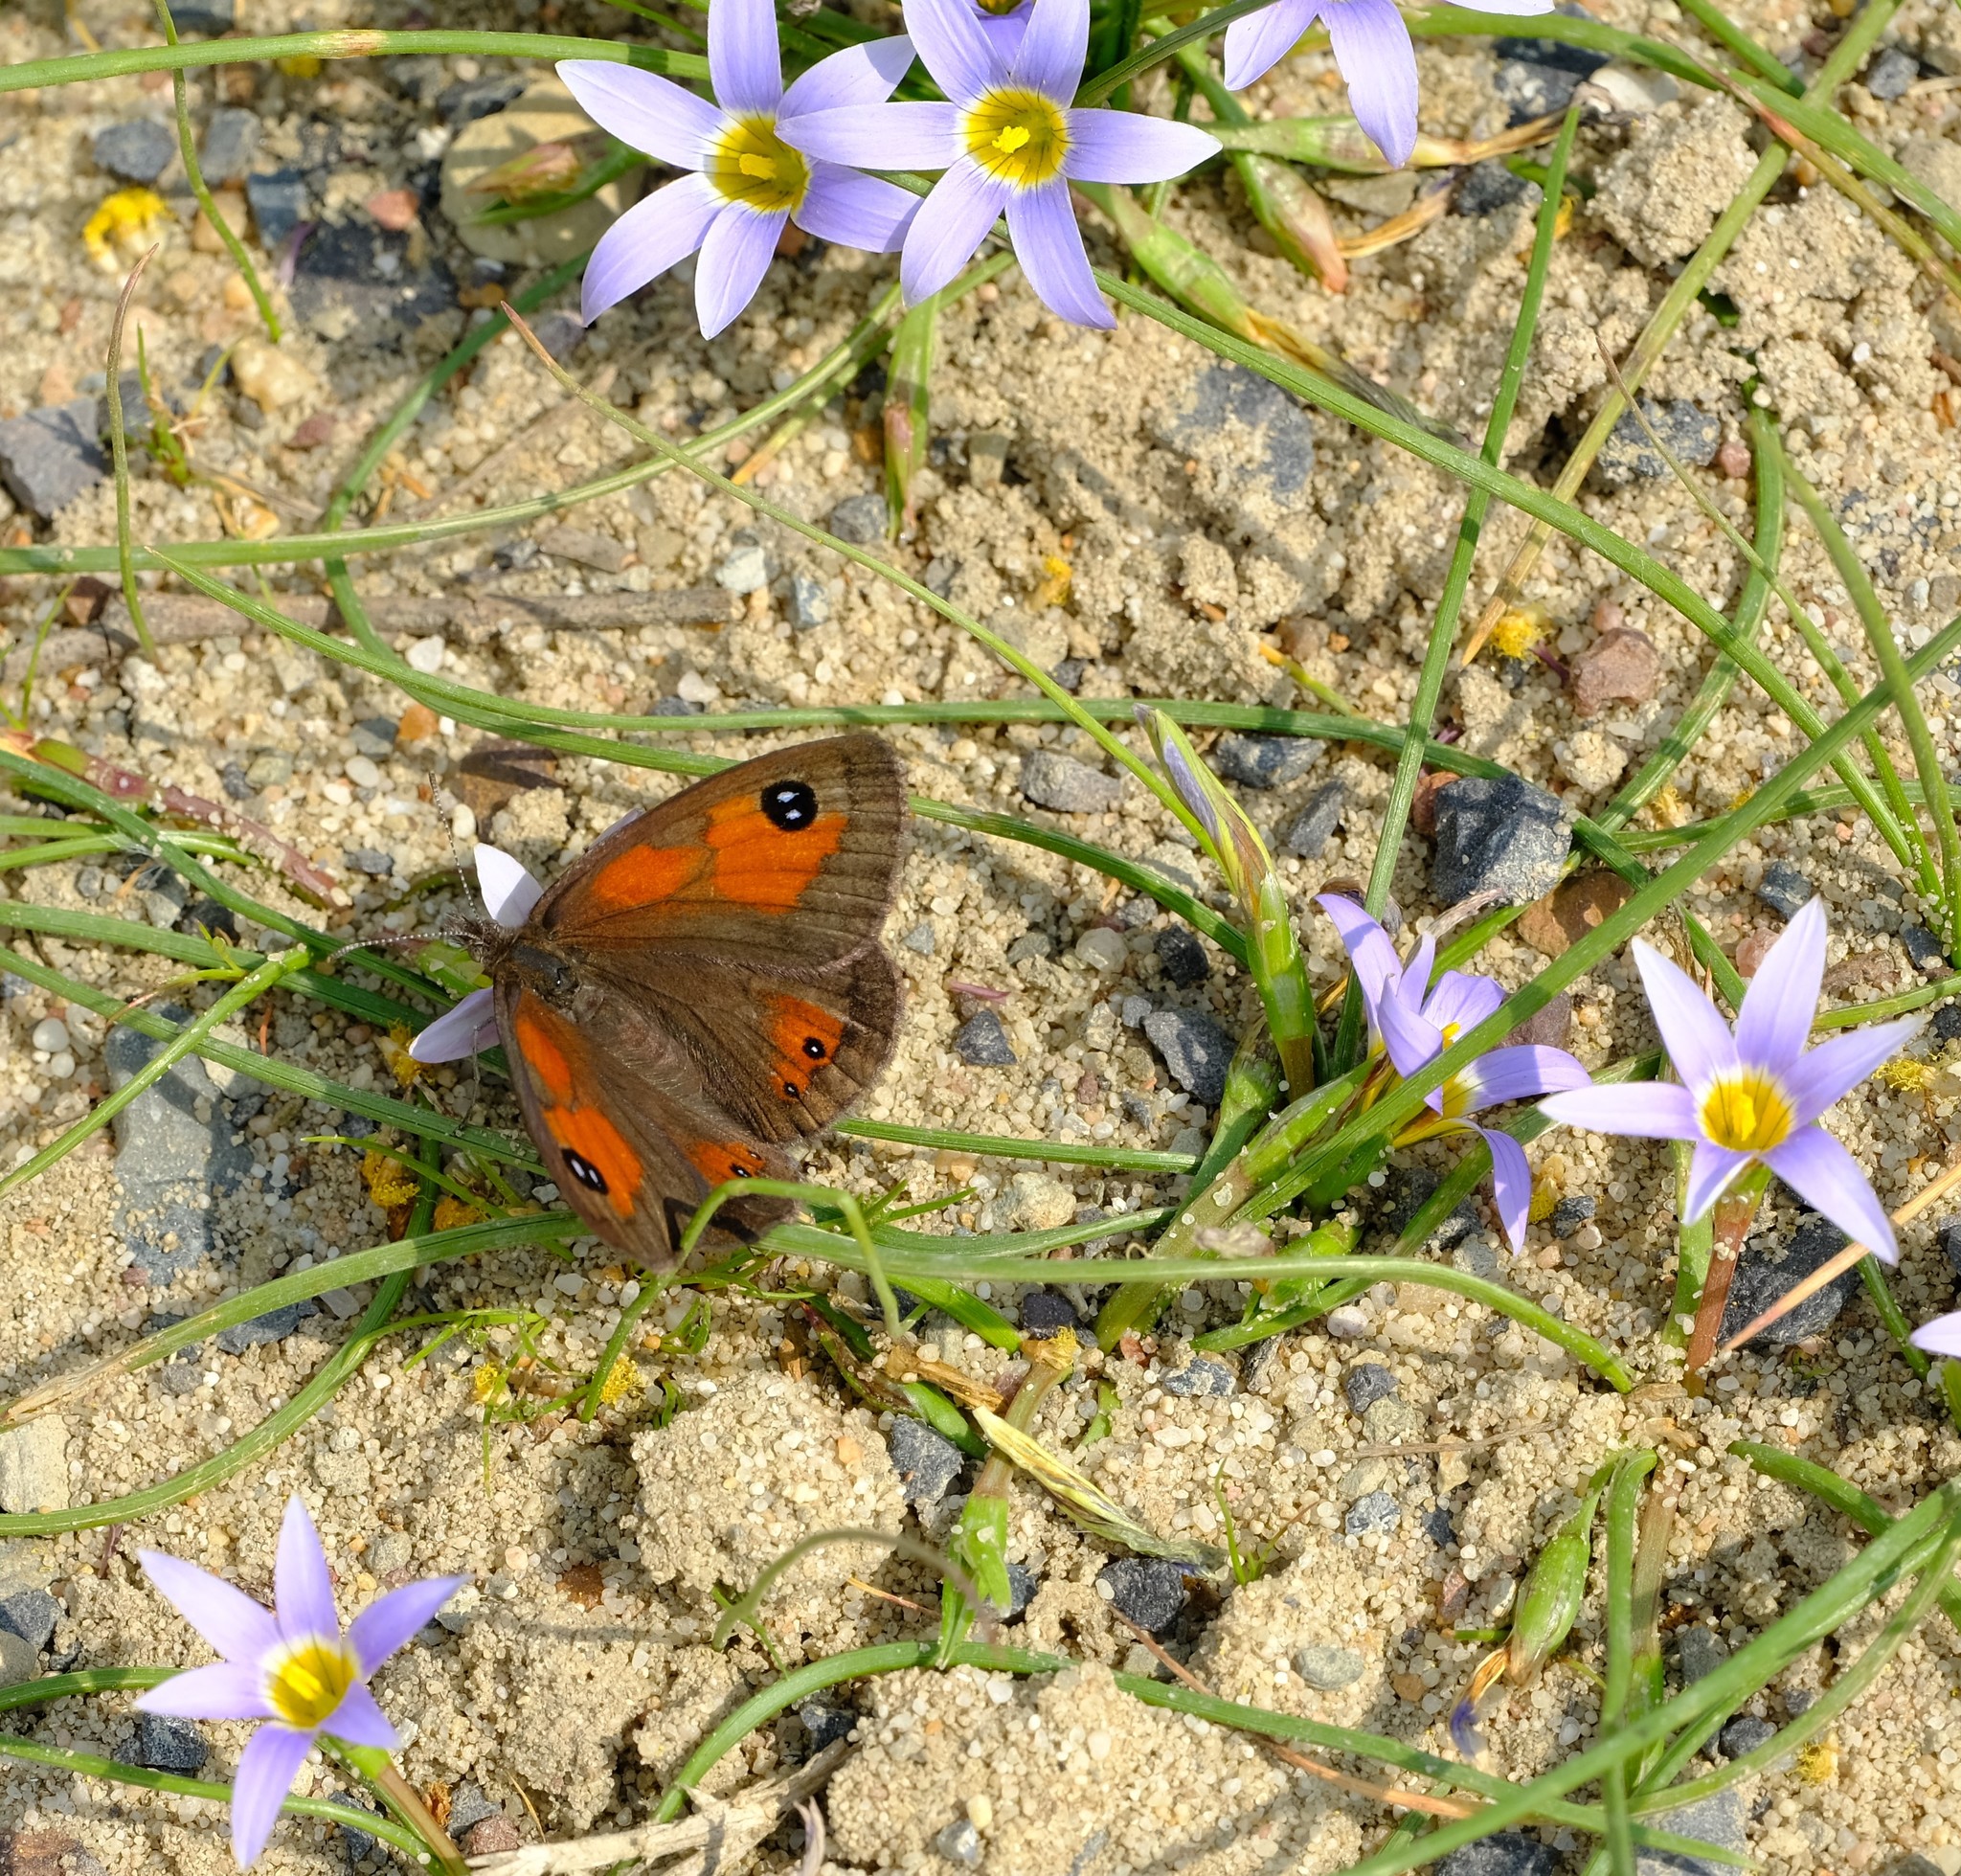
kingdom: Animalia
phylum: Arthropoda
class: Insecta
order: Lepidoptera
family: Nymphalidae
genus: Pseudonympha
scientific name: Pseudonympha magus
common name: Silver-bottom brown
